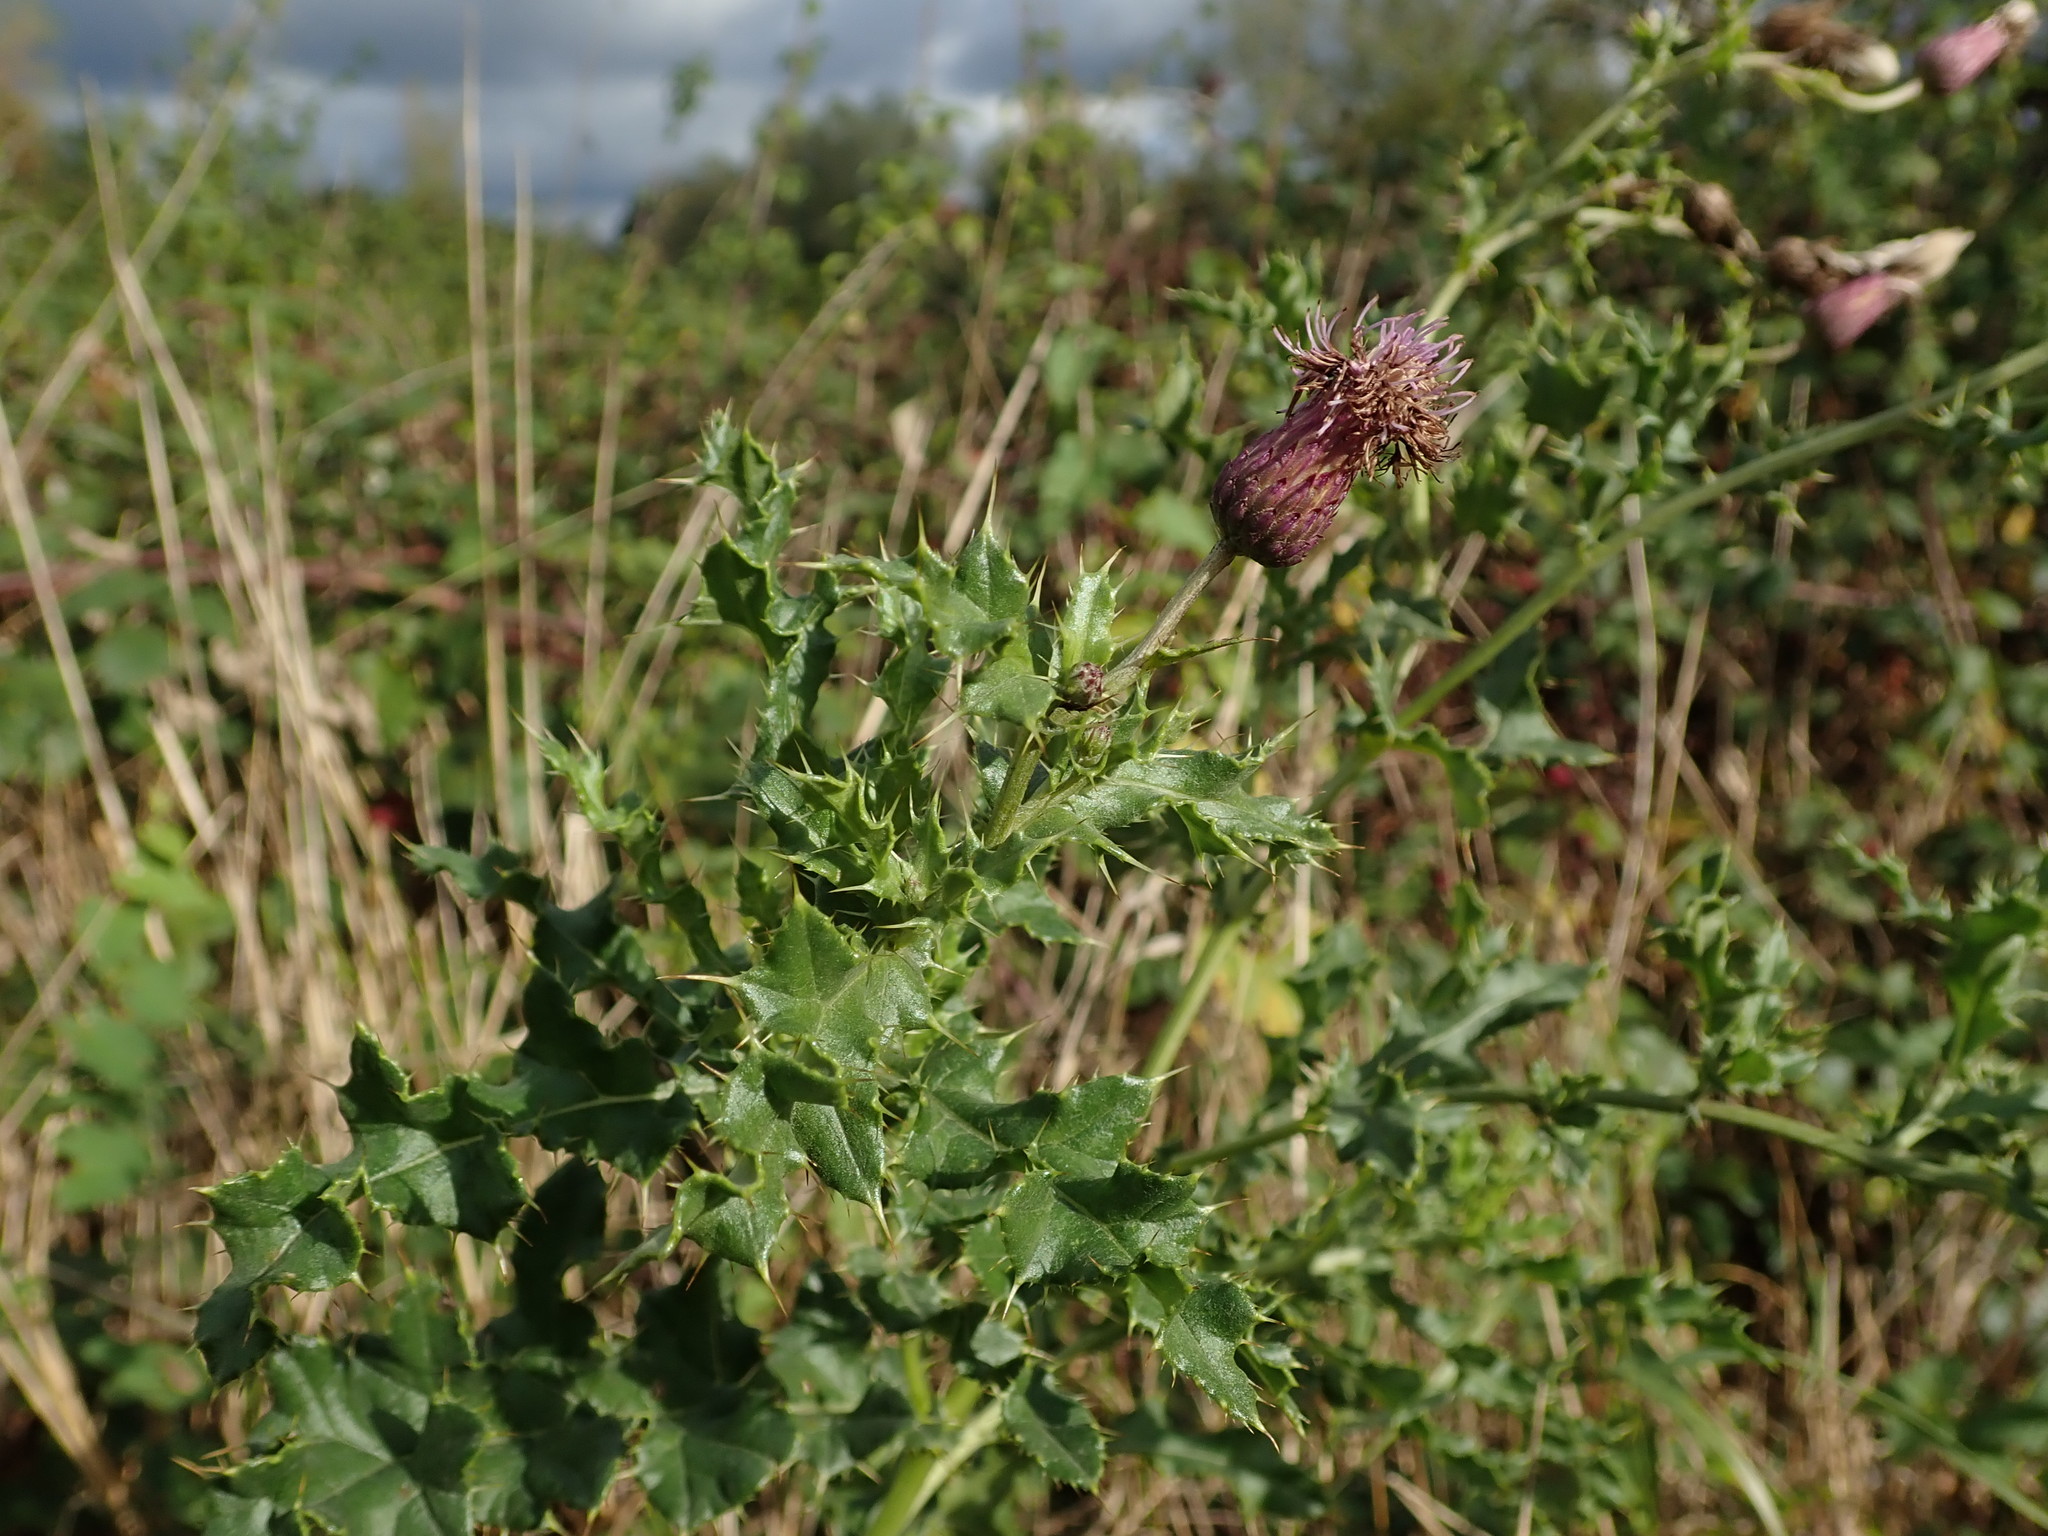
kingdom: Plantae
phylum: Tracheophyta
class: Magnoliopsida
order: Asterales
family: Asteraceae
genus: Cirsium
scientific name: Cirsium arvense
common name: Creeping thistle
